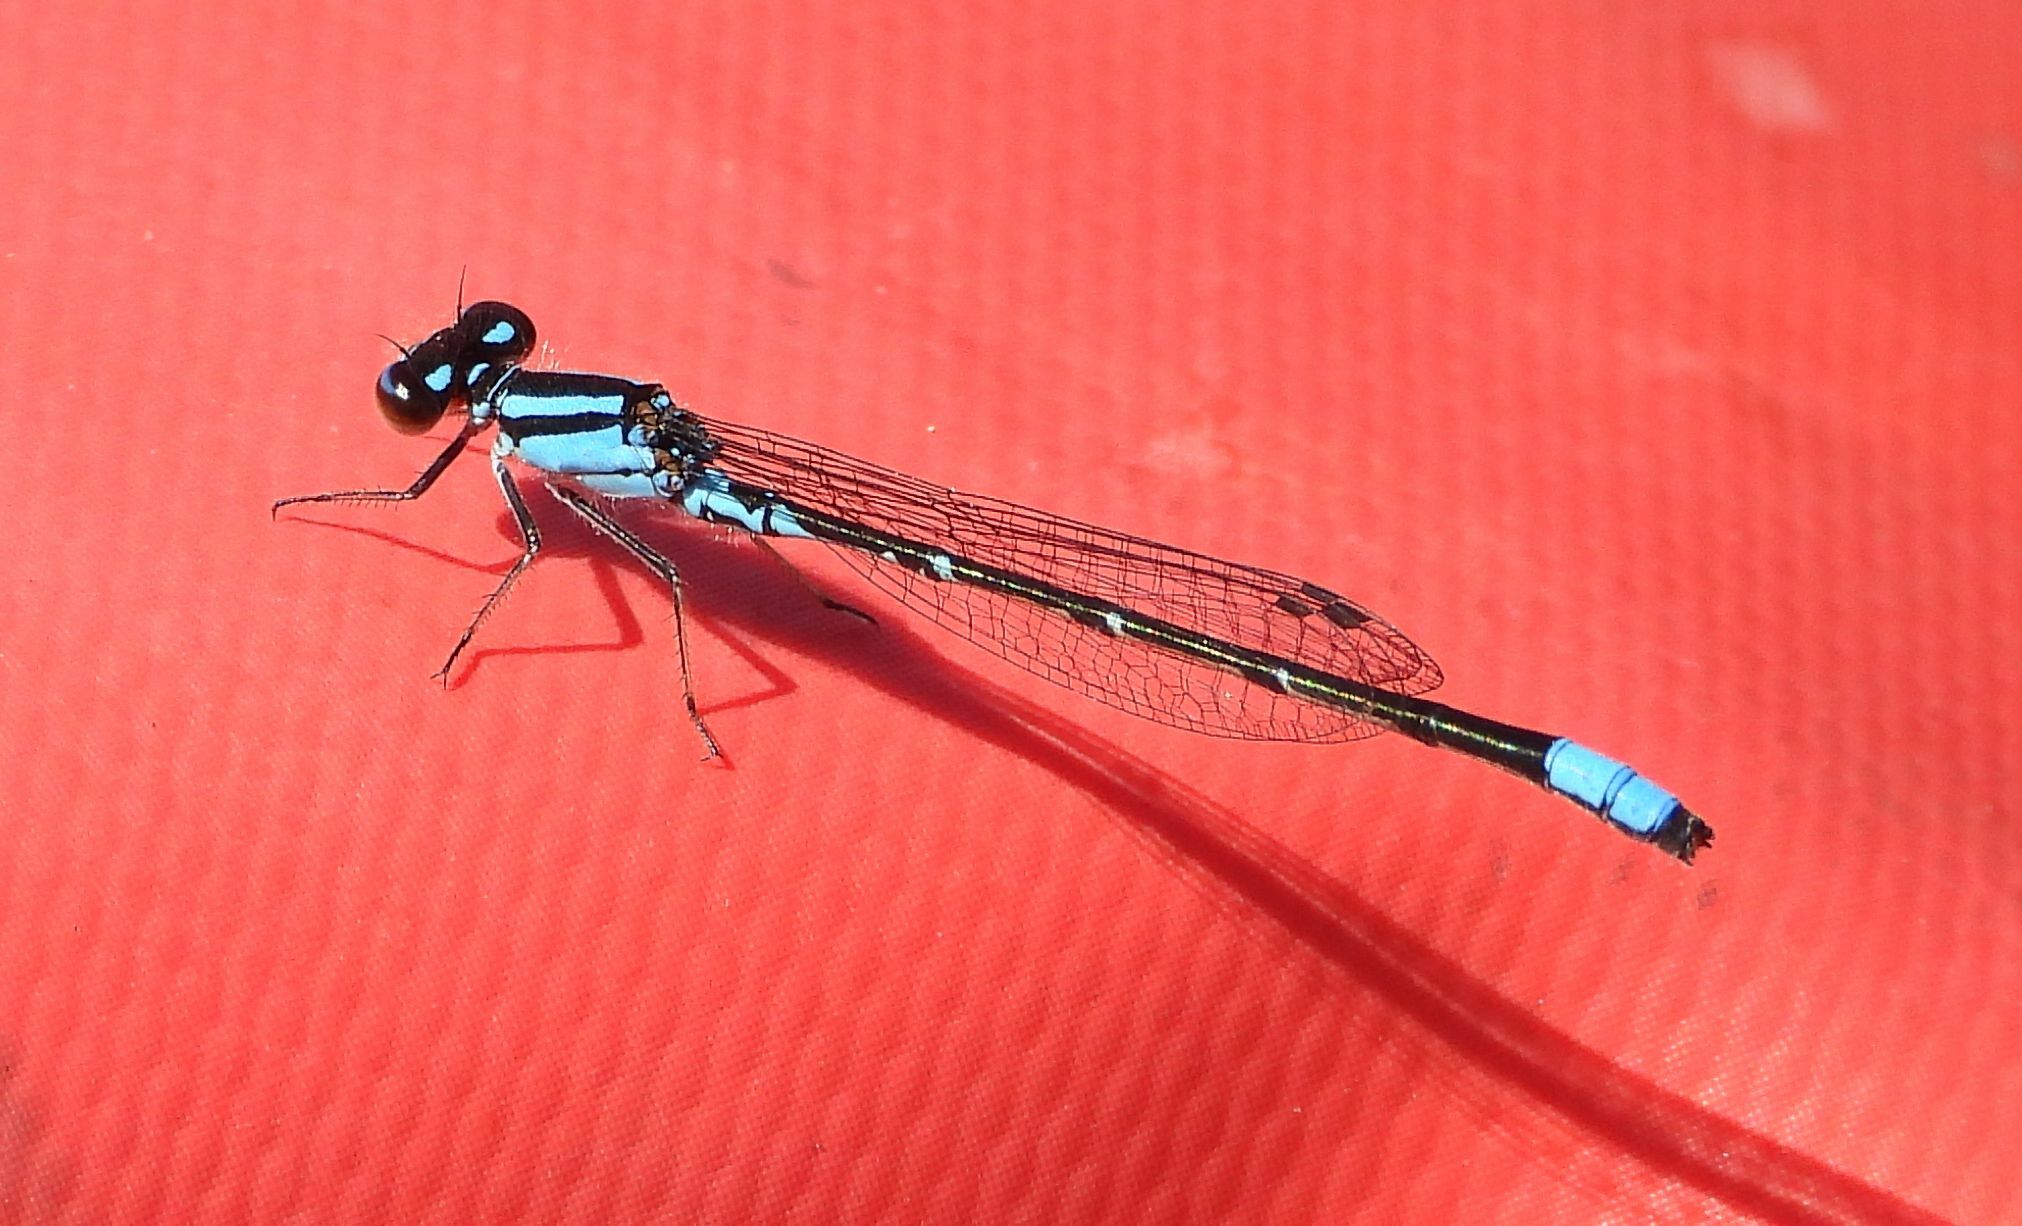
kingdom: Animalia
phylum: Arthropoda
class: Insecta
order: Odonata
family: Coenagrionidae
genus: Enallagma
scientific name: Enallagma geminatum
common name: Skimming bluet
